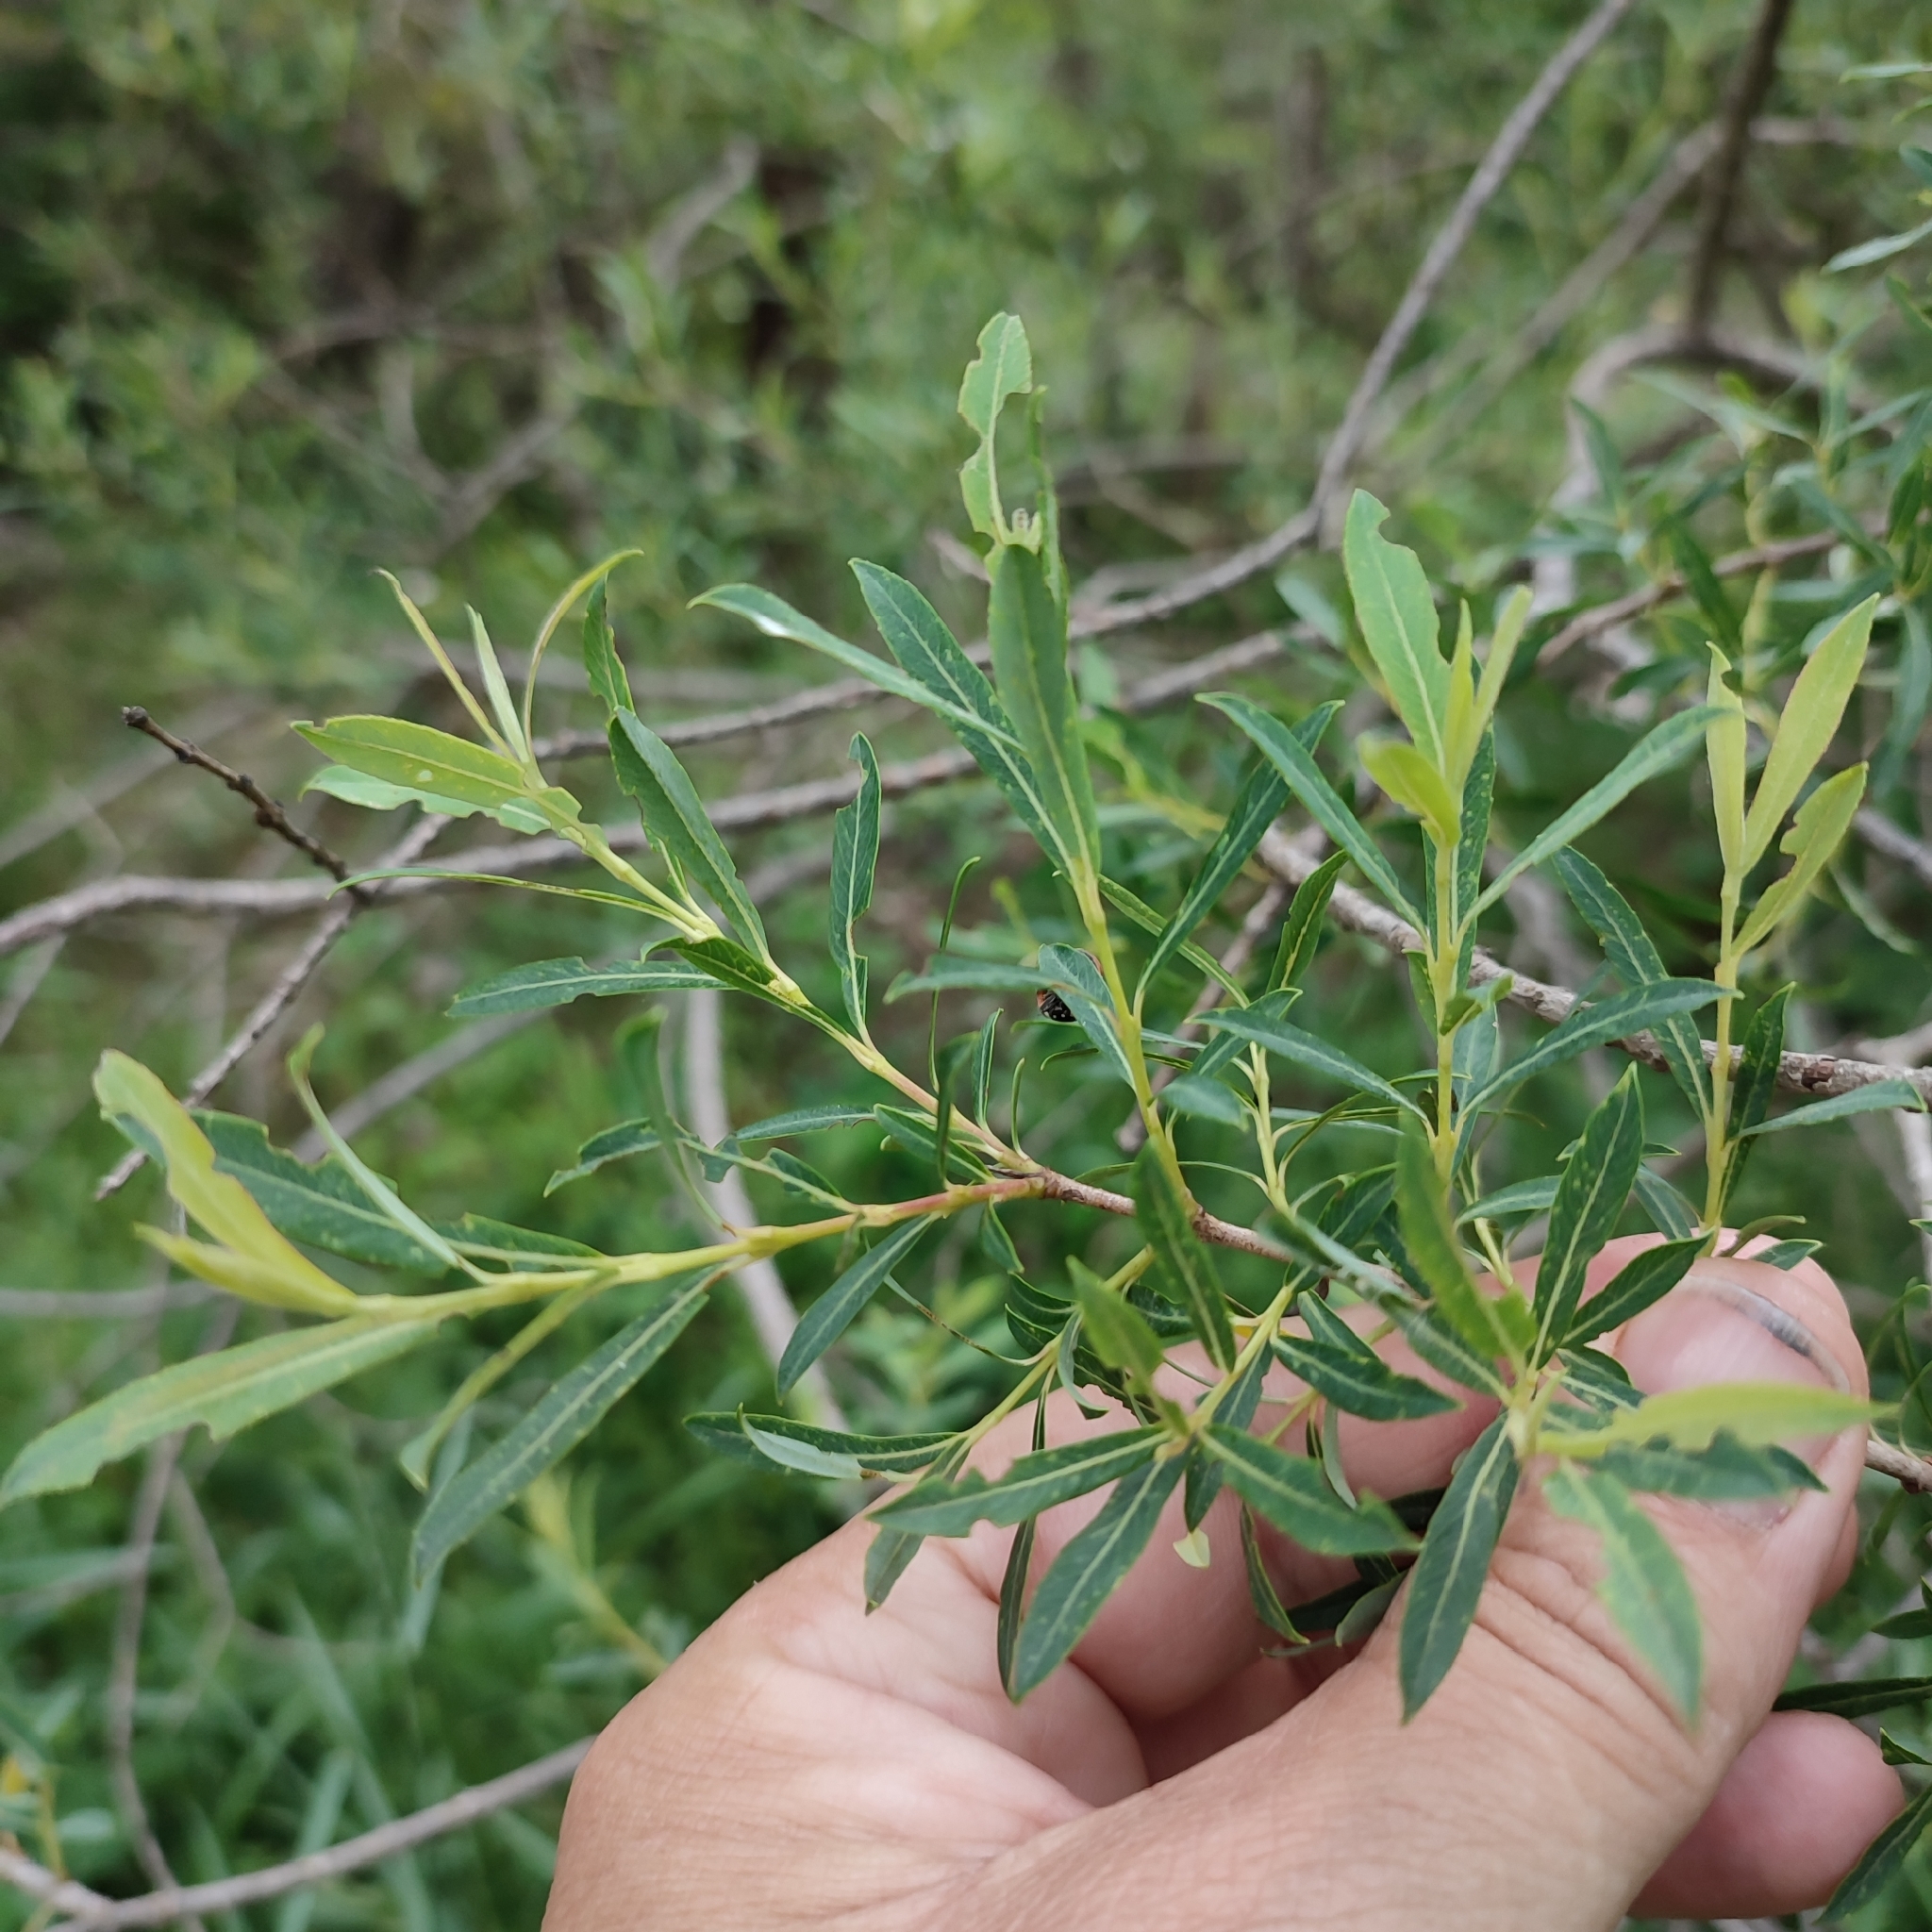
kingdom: Plantae
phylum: Tracheophyta
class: Magnoliopsida
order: Malpighiales
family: Salicaceae
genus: Salix
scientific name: Salix purpurea
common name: Purple willow
